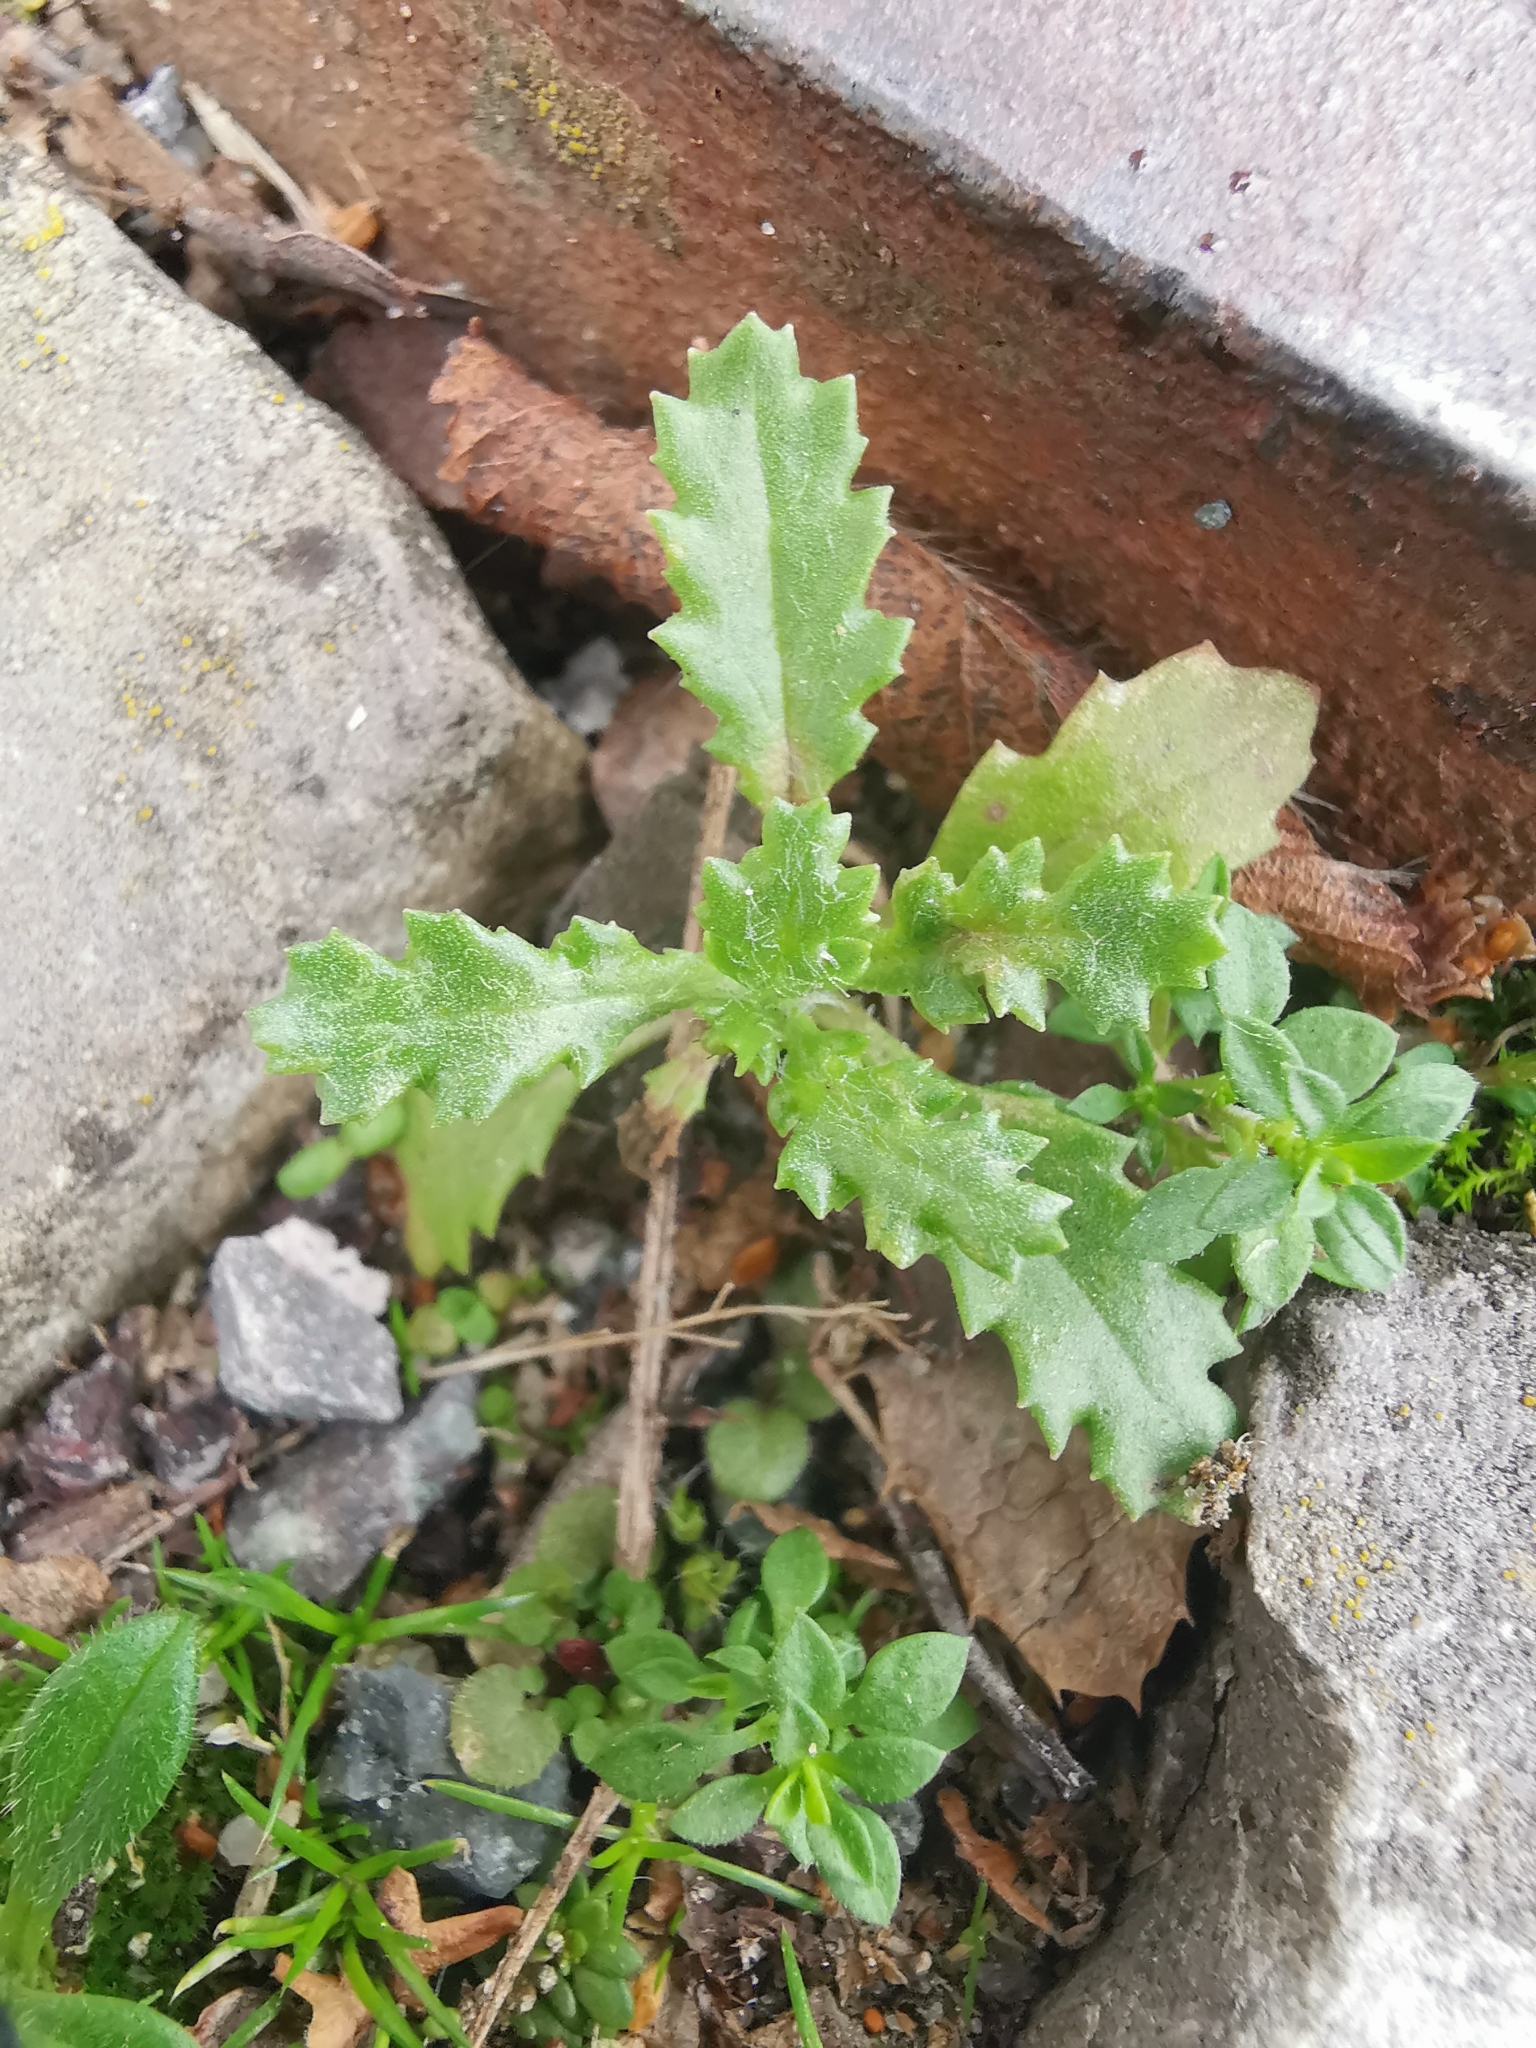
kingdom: Plantae
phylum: Tracheophyta
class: Magnoliopsida
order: Asterales
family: Asteraceae
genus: Senecio
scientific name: Senecio vulgaris
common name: Old-man-in-the-spring
